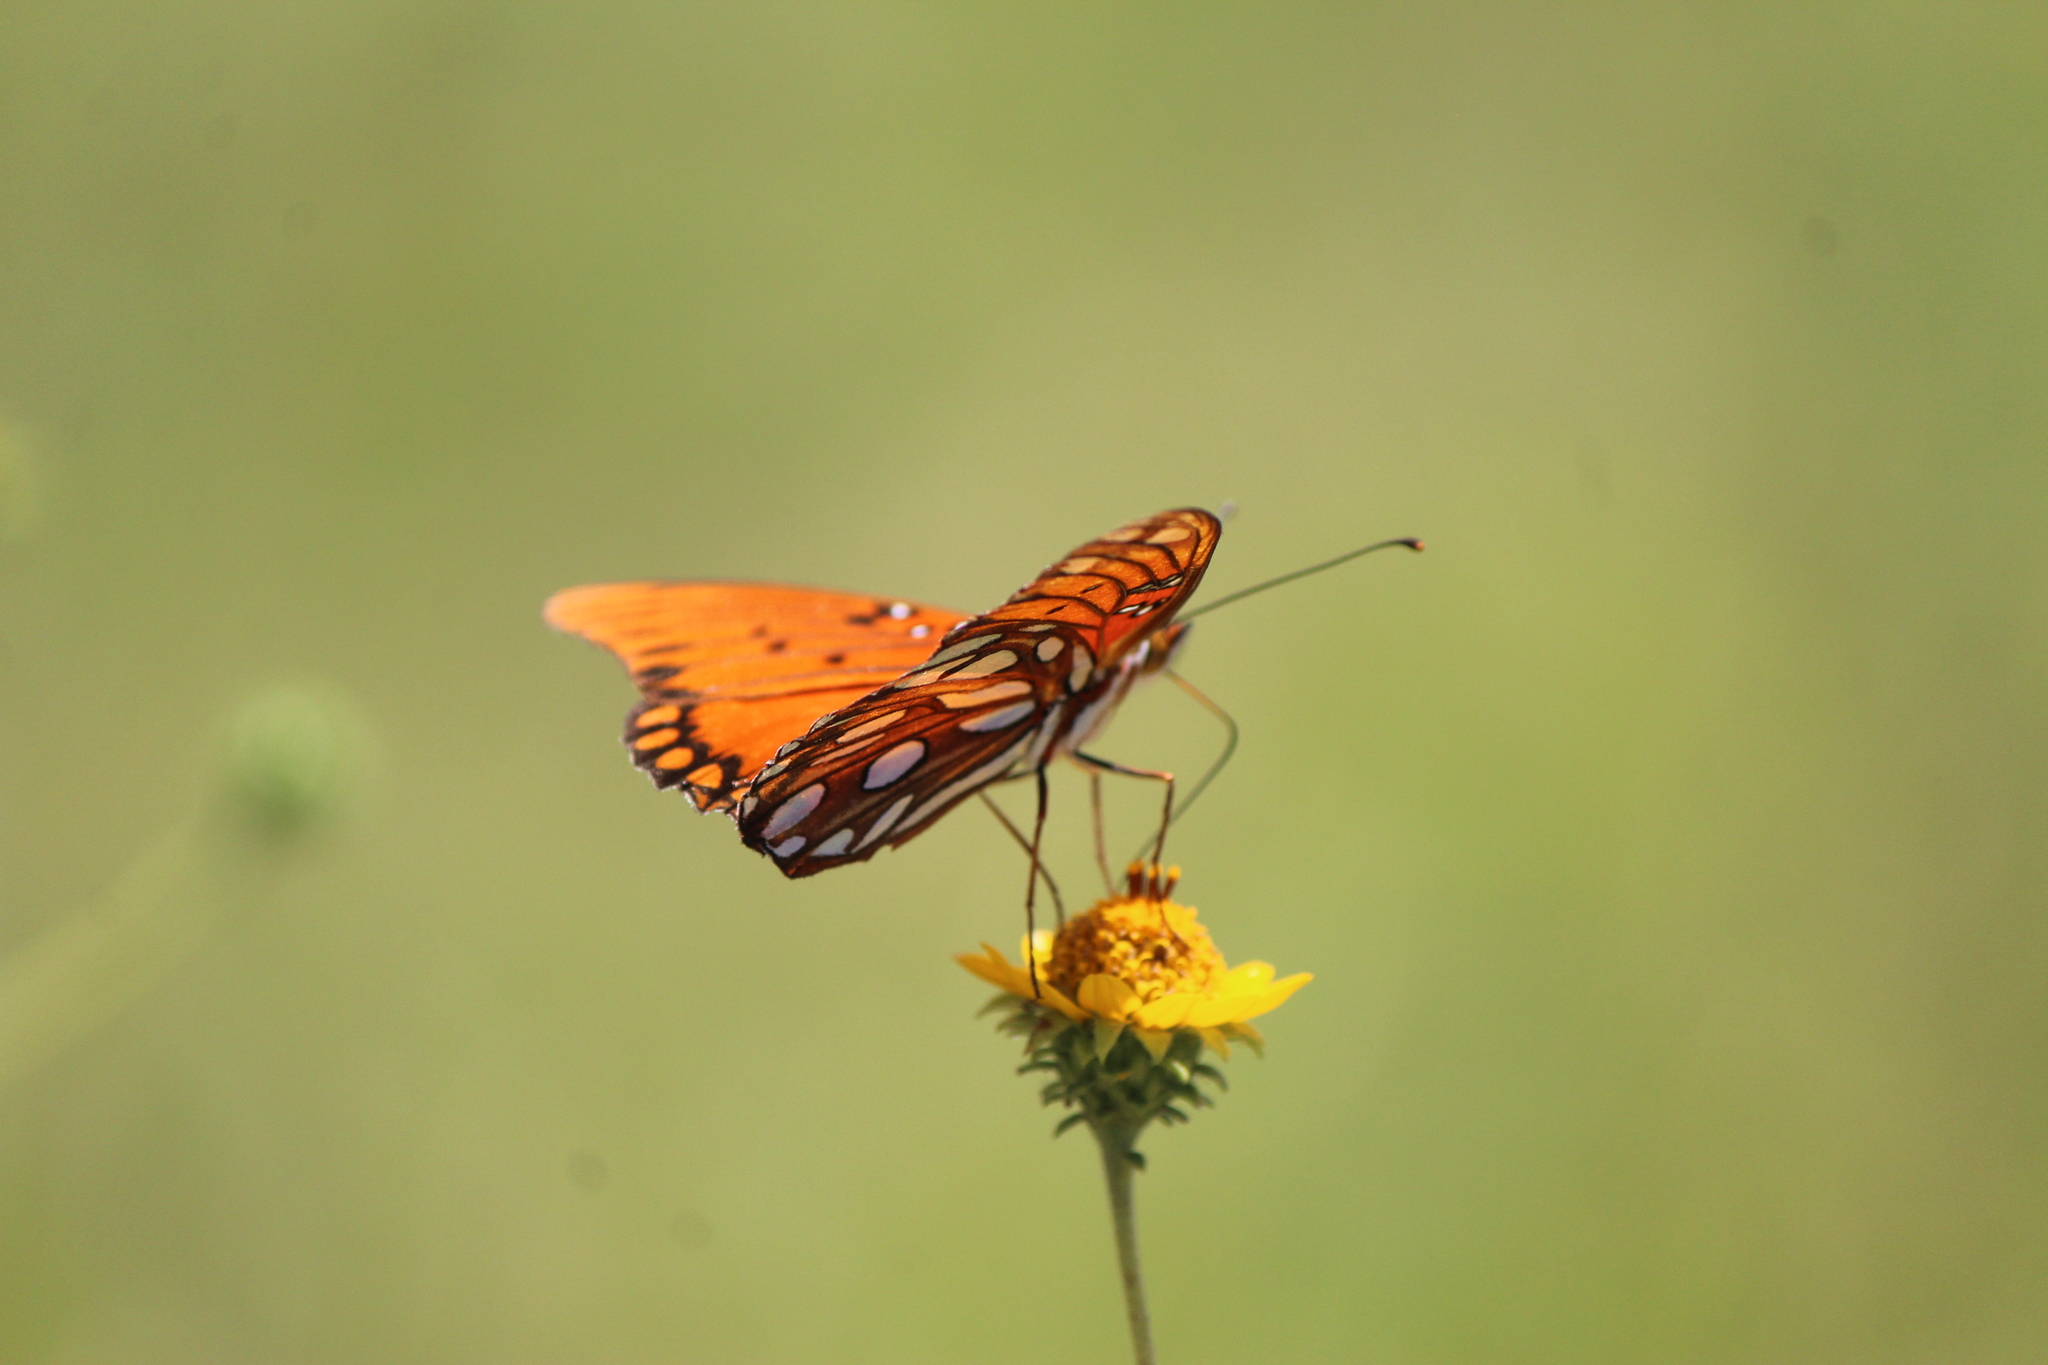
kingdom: Animalia
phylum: Arthropoda
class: Insecta
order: Lepidoptera
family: Nymphalidae
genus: Dione
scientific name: Dione vanillae
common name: Gulf fritillary
